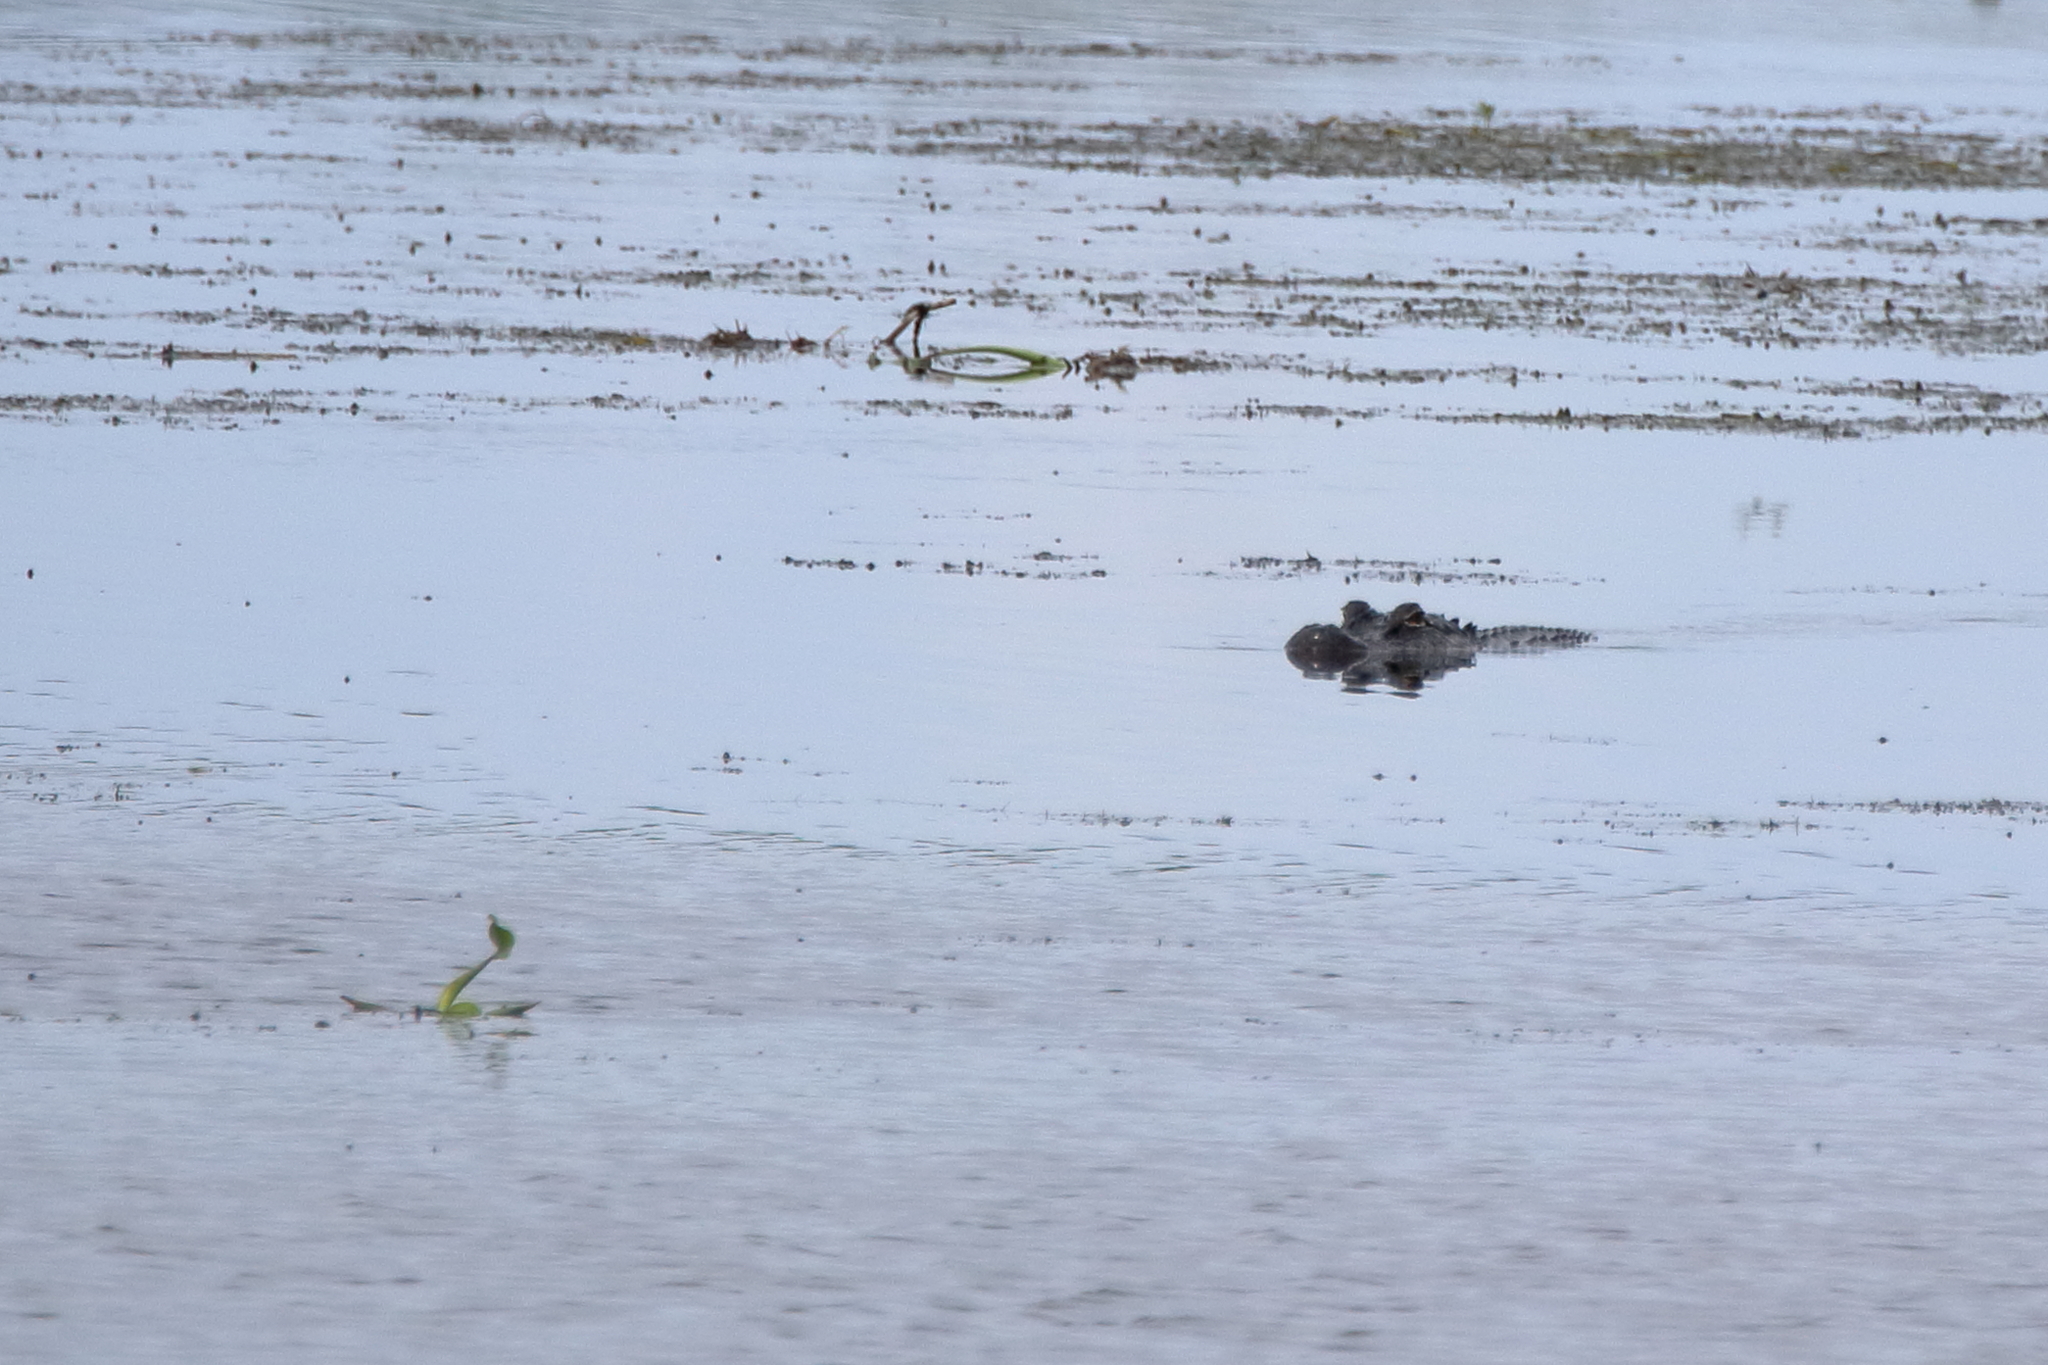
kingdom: Animalia
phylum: Chordata
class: Crocodylia
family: Alligatoridae
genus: Alligator
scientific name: Alligator mississippiensis
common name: American alligator
